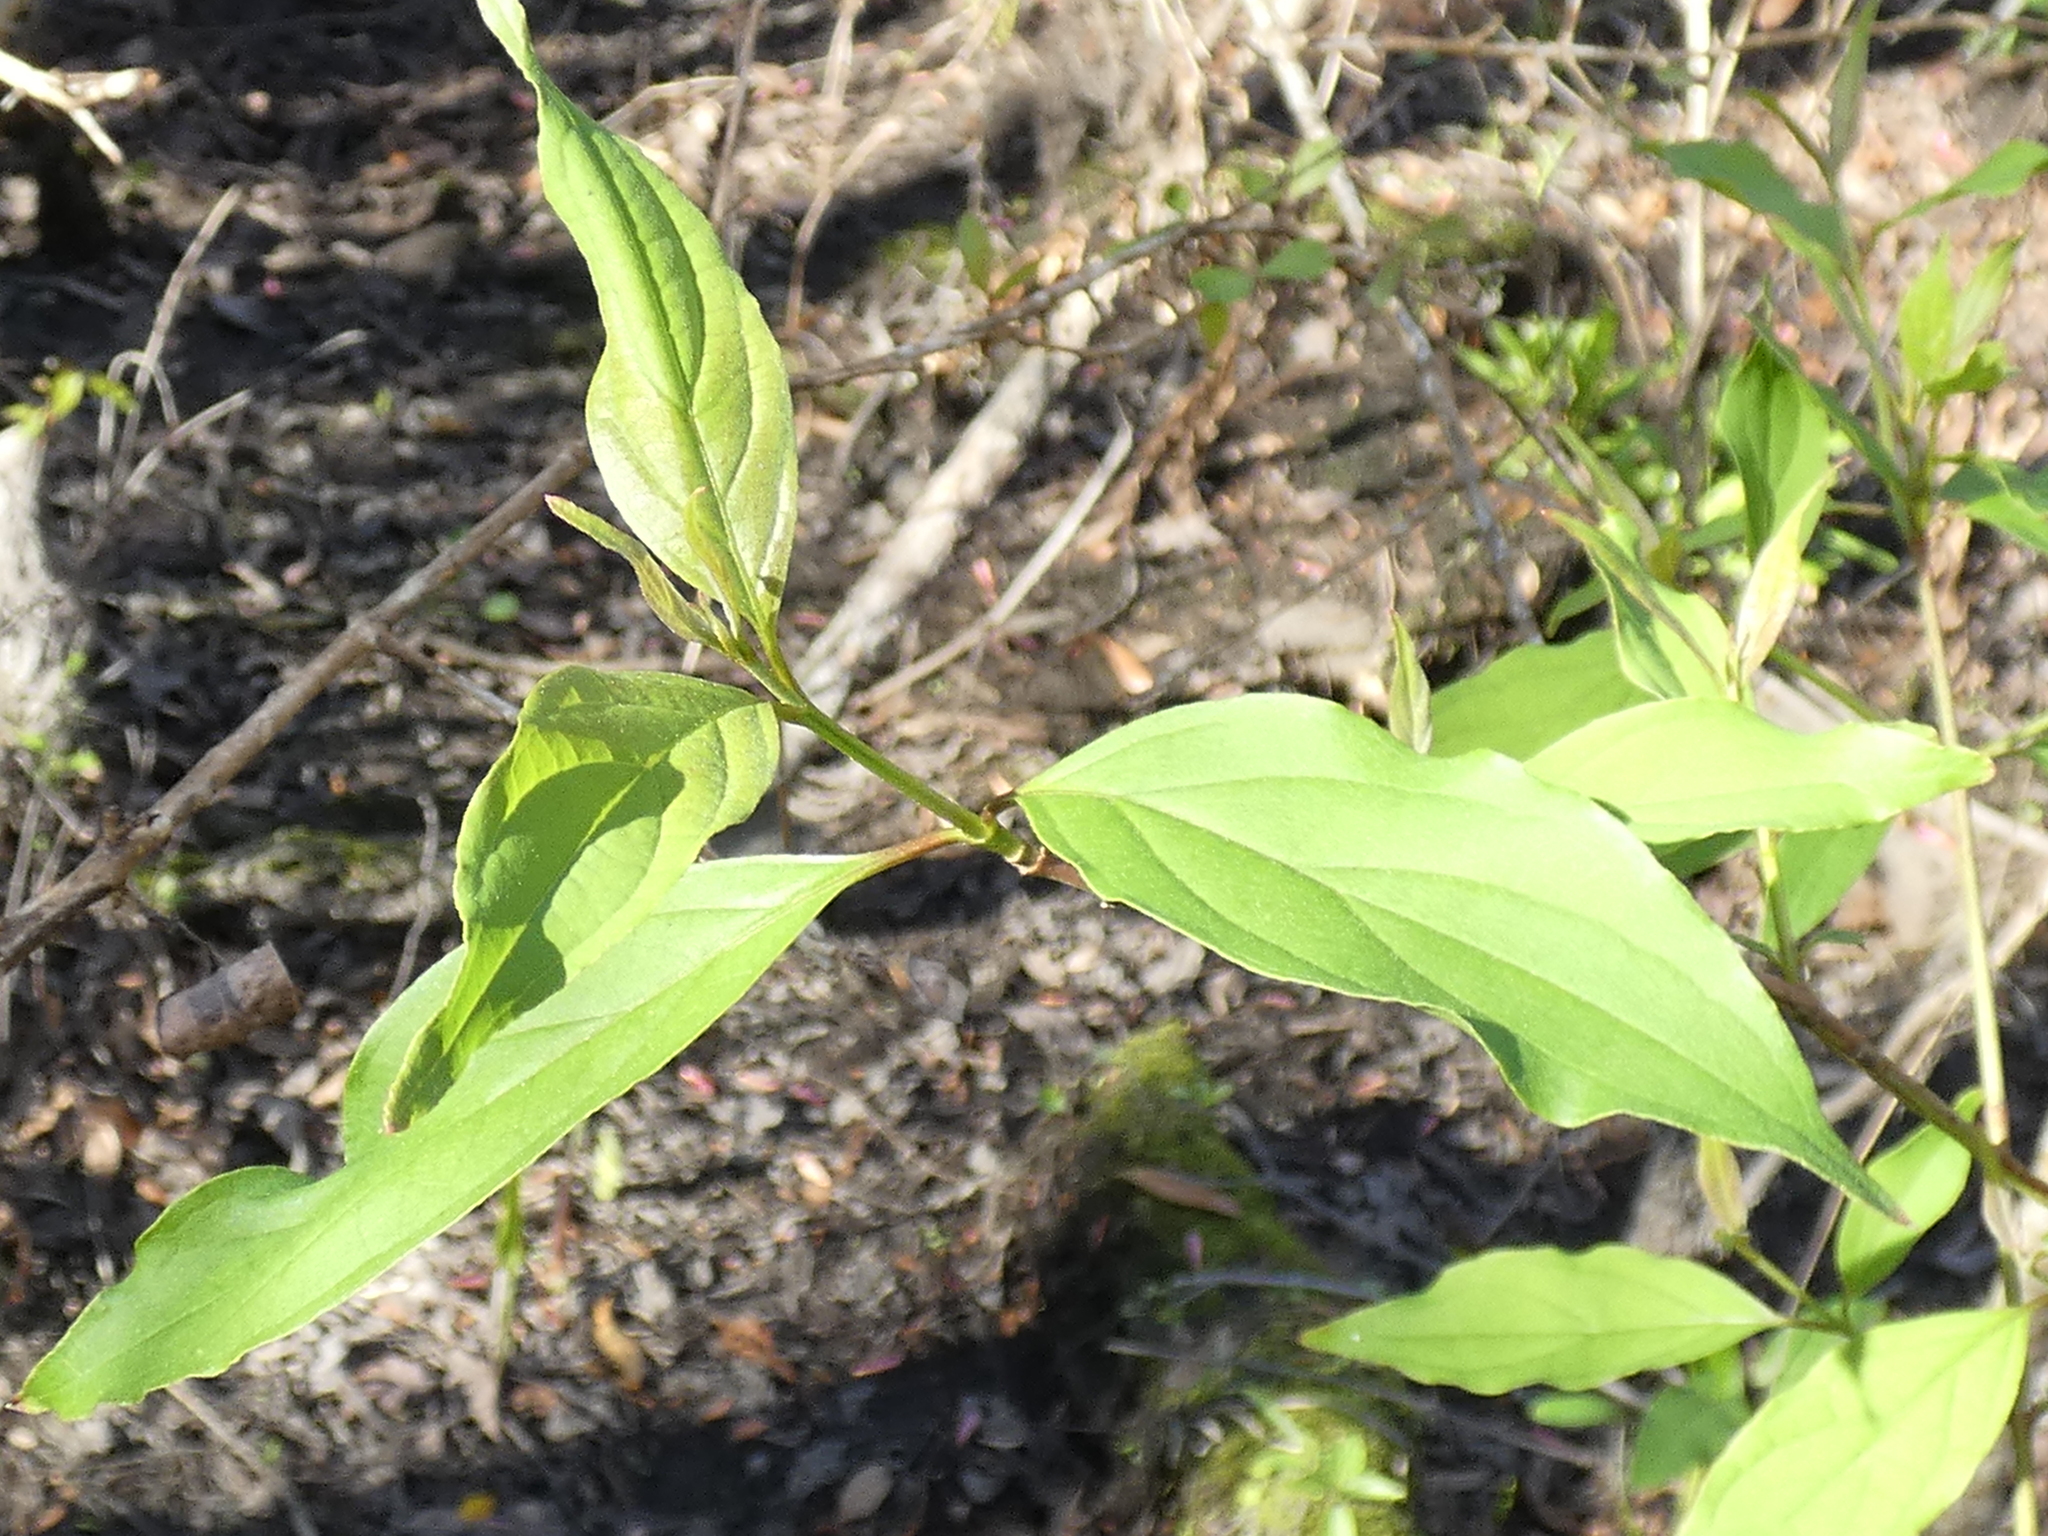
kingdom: Plantae
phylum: Tracheophyta
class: Magnoliopsida
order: Cornales
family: Cornaceae
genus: Cornus
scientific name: Cornus foemina
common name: Swamp dogwood
